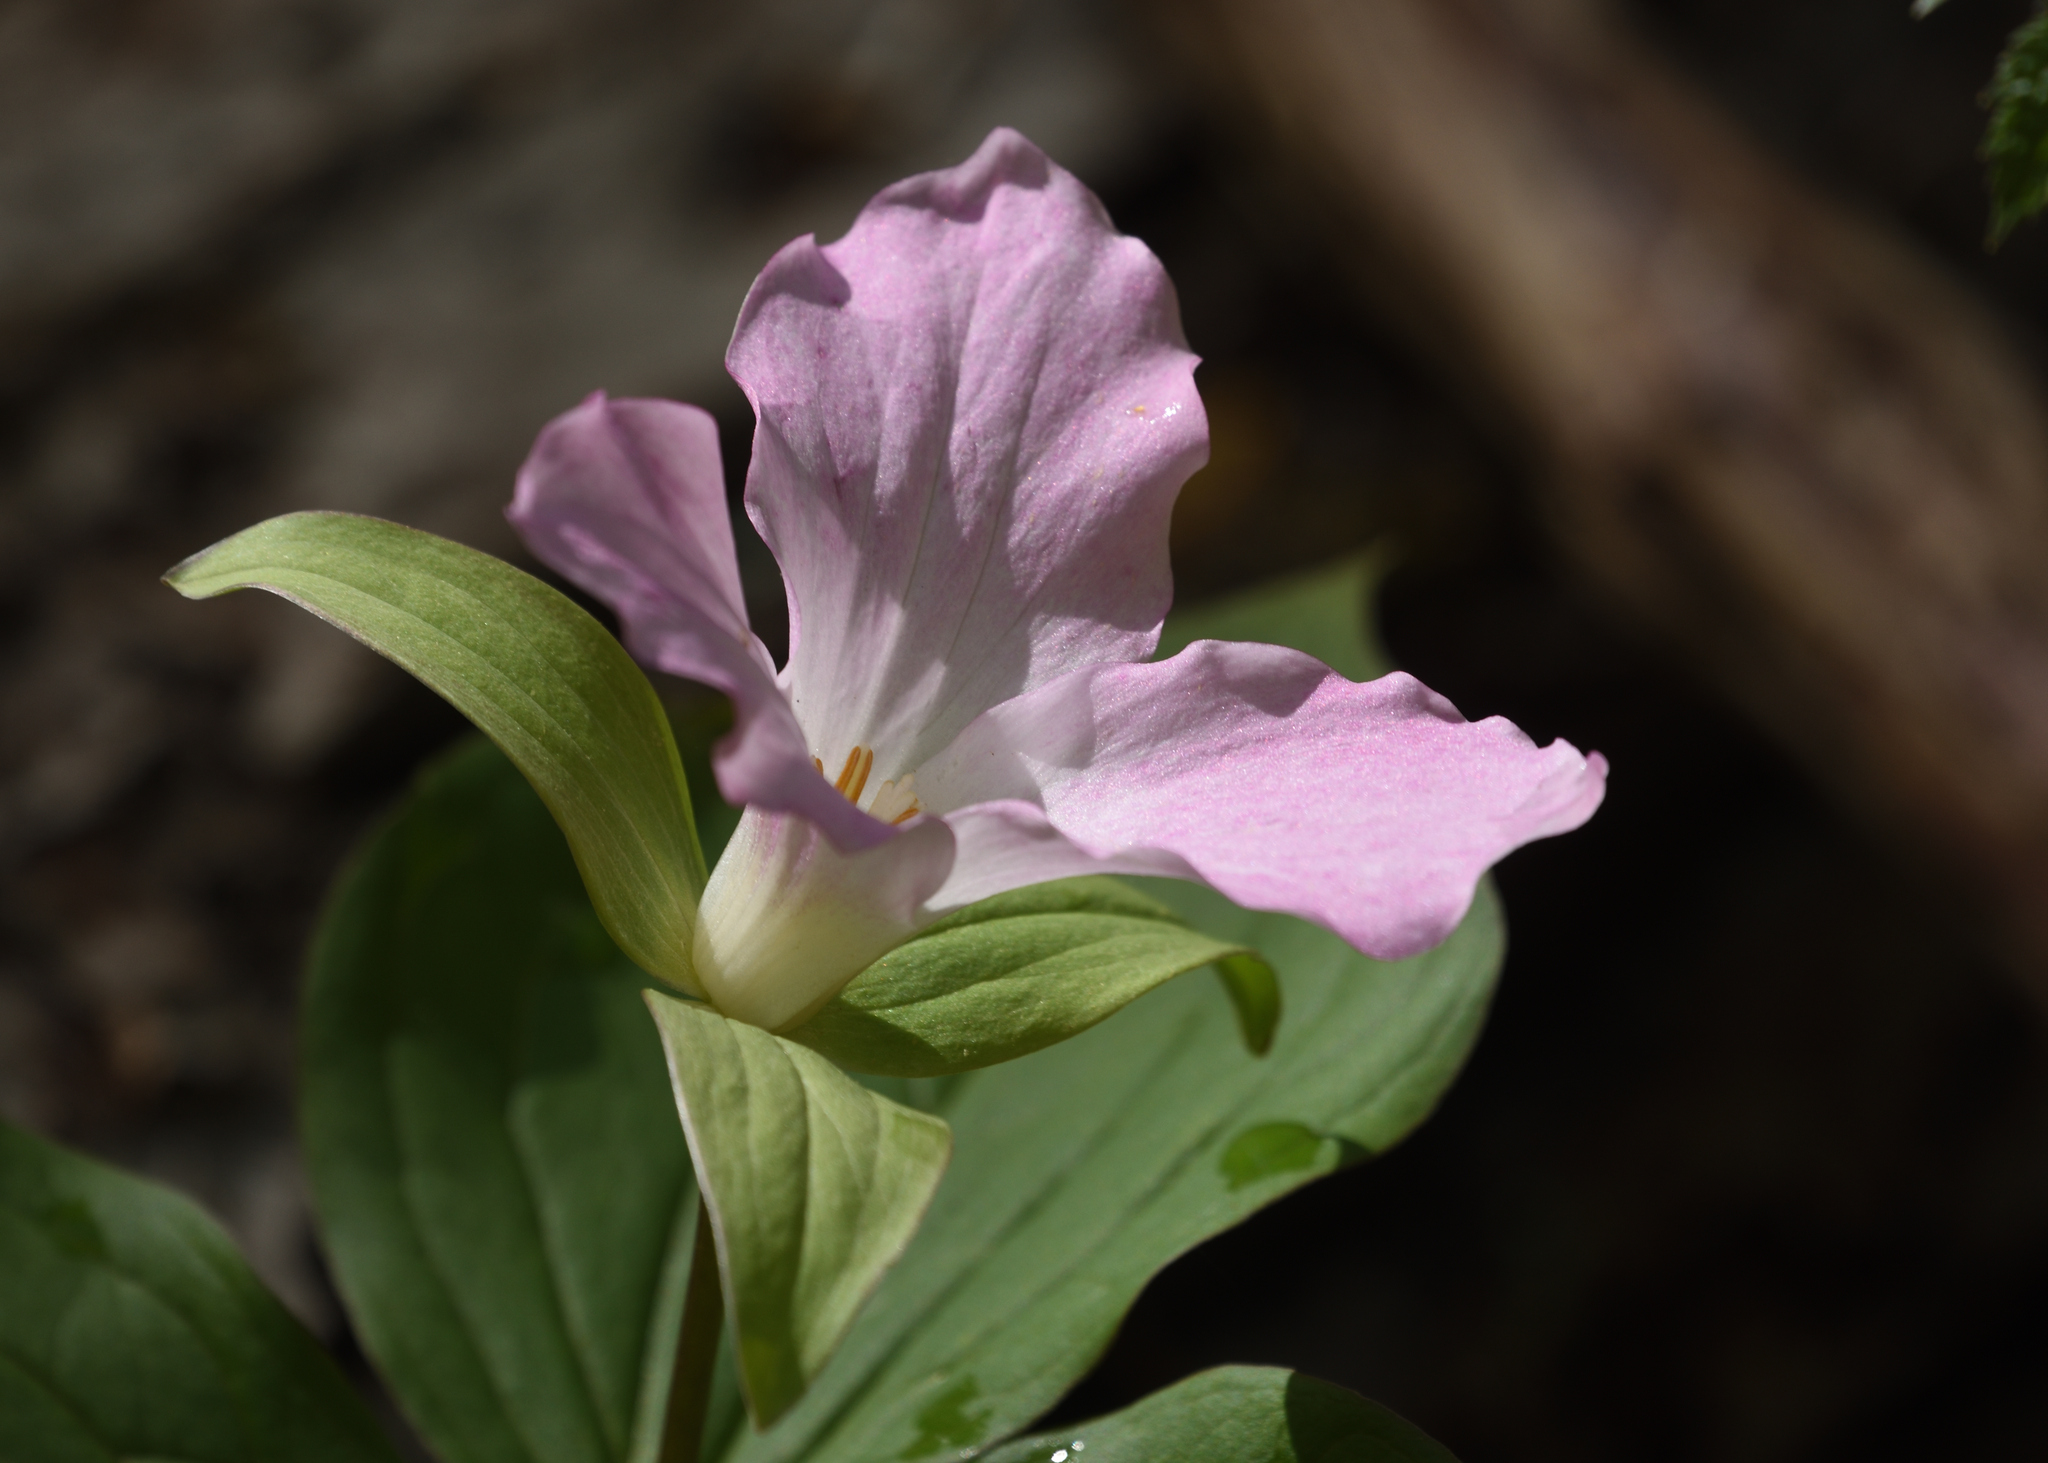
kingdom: Plantae
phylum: Tracheophyta
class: Liliopsida
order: Liliales
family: Melanthiaceae
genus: Trillium
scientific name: Trillium grandiflorum
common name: Great white trillium
